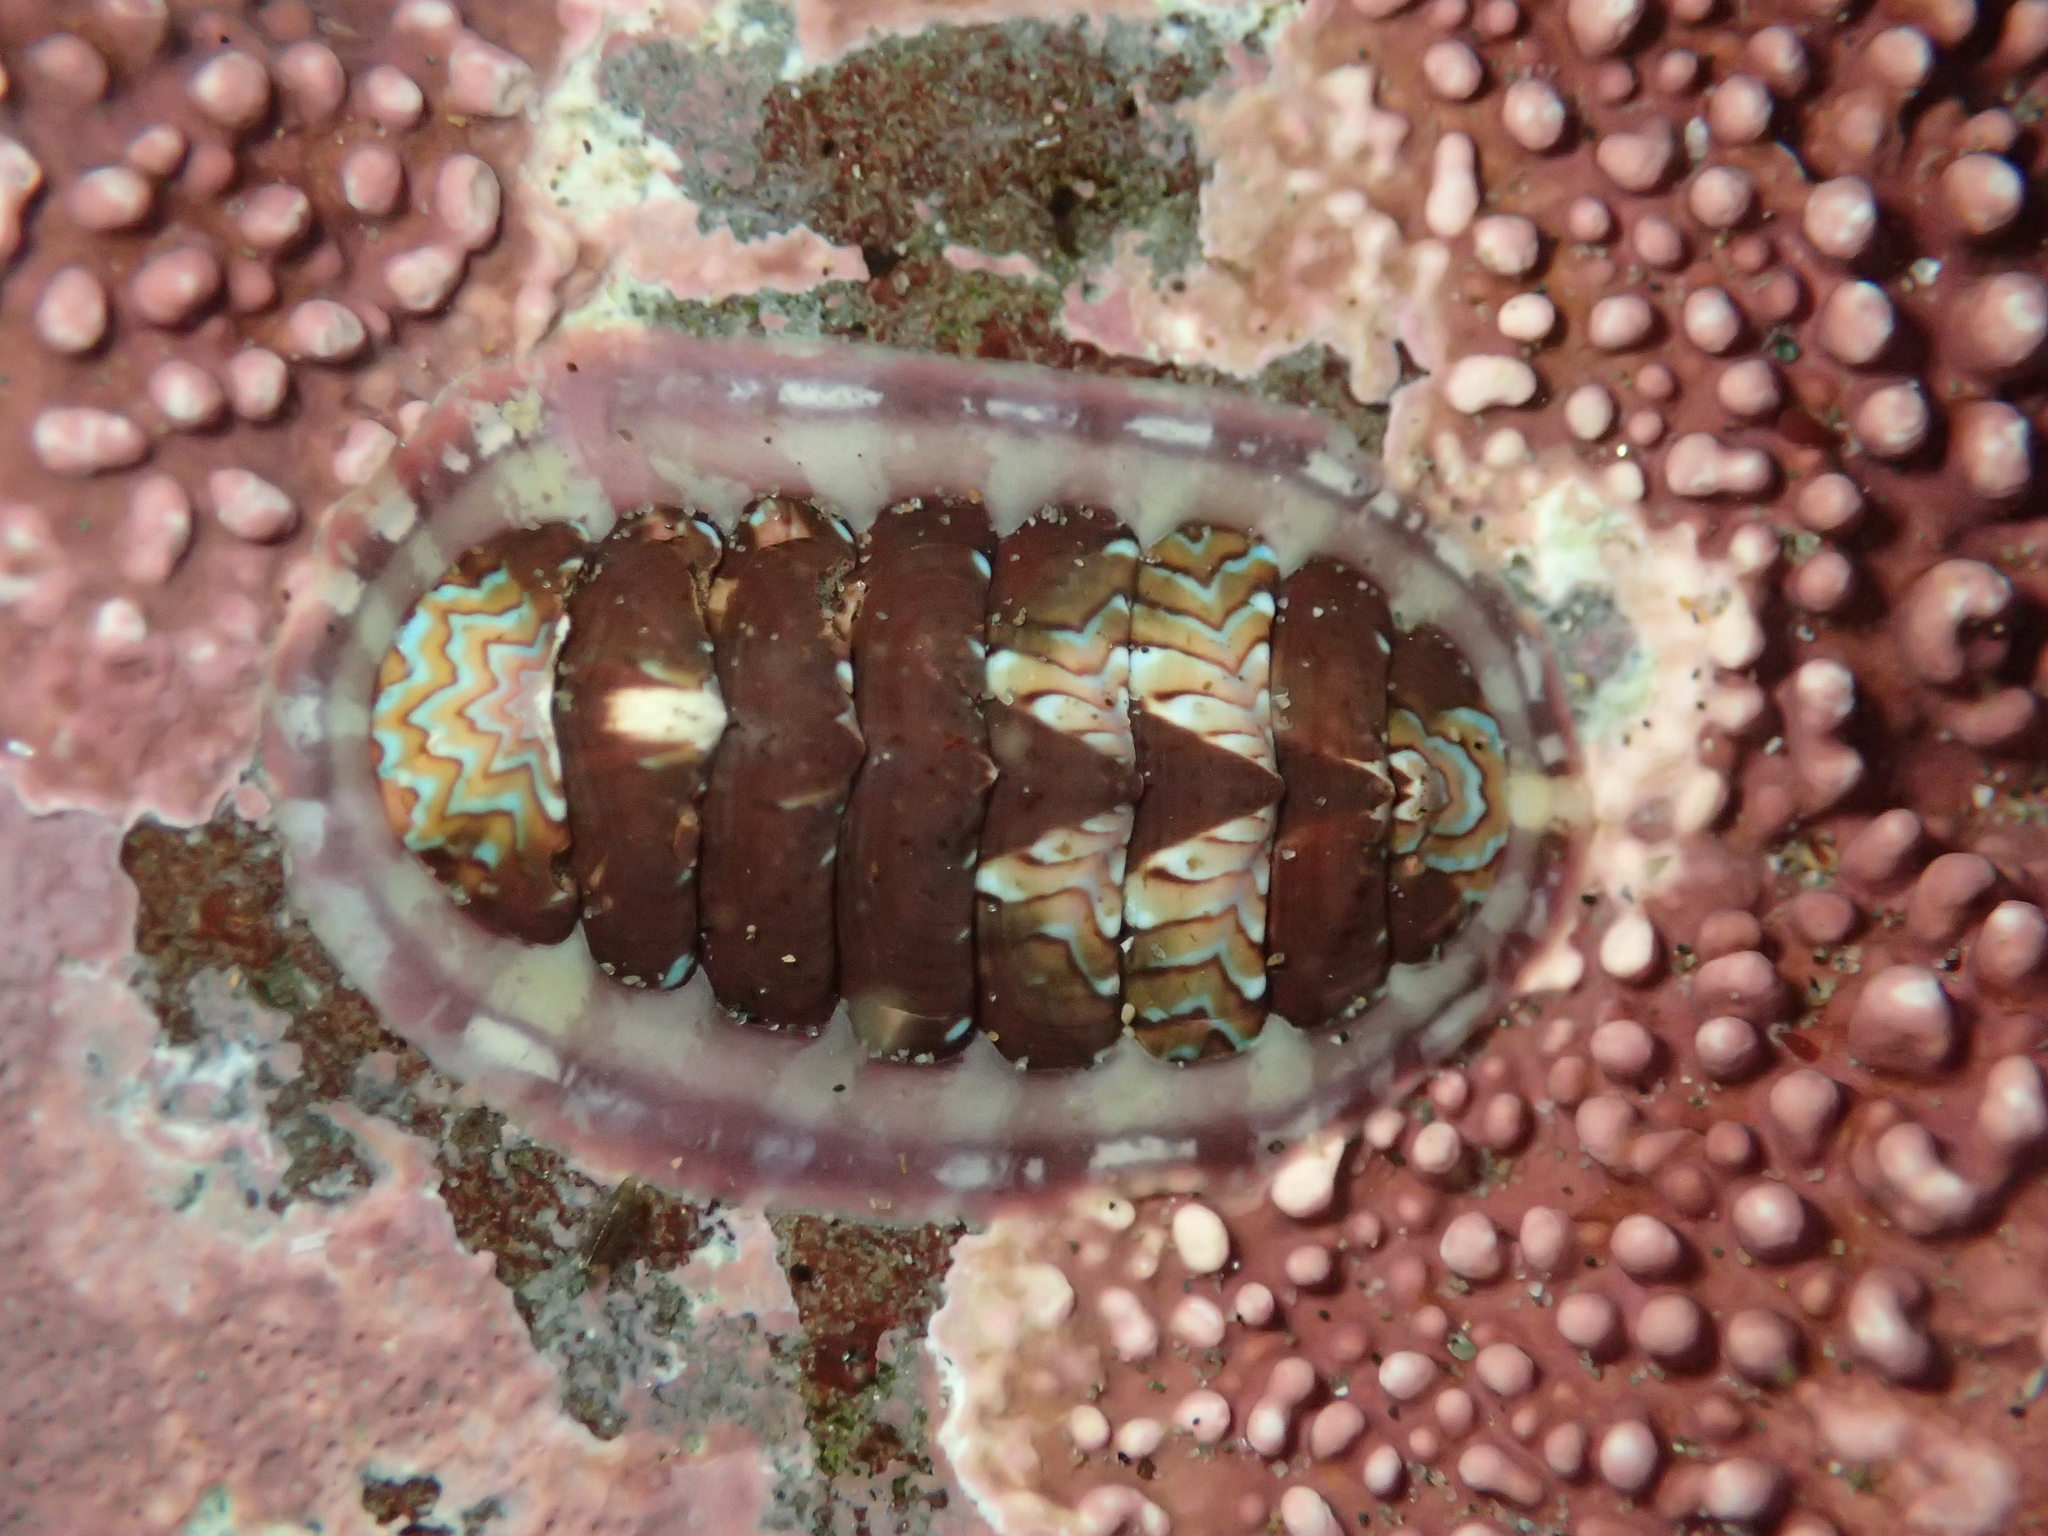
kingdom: Animalia
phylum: Mollusca
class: Polyplacophora
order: Chitonida
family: Tonicellidae
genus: Tonicella
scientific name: Tonicella lokii
